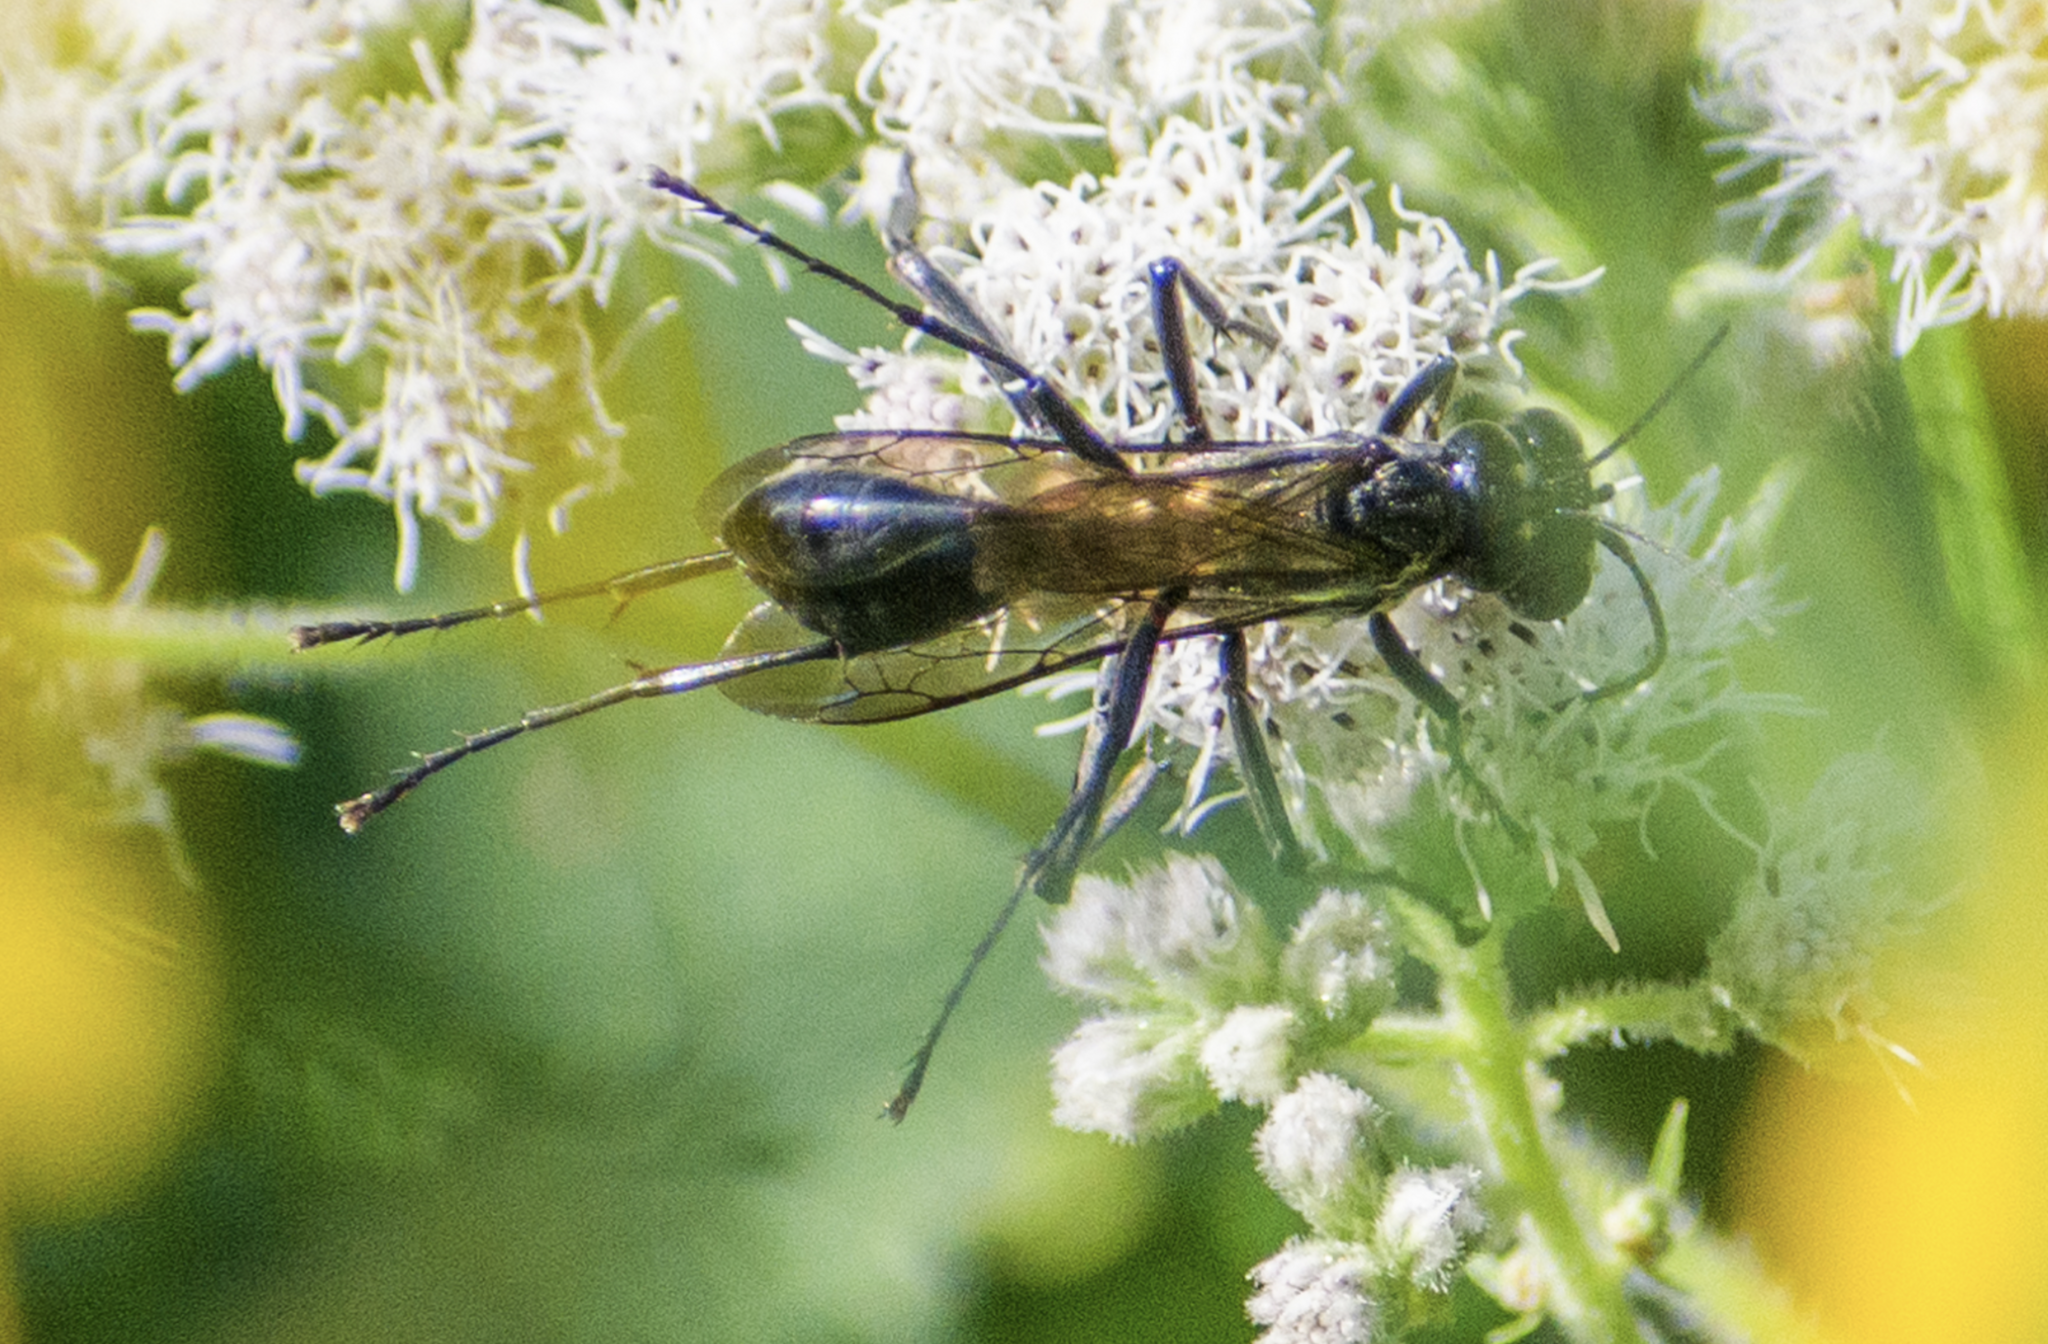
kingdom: Animalia
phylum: Arthropoda
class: Insecta
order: Hymenoptera
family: Sphecidae
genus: Eremnophila
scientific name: Eremnophila aureonotata
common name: Gold-marked thread-waisted wasp
